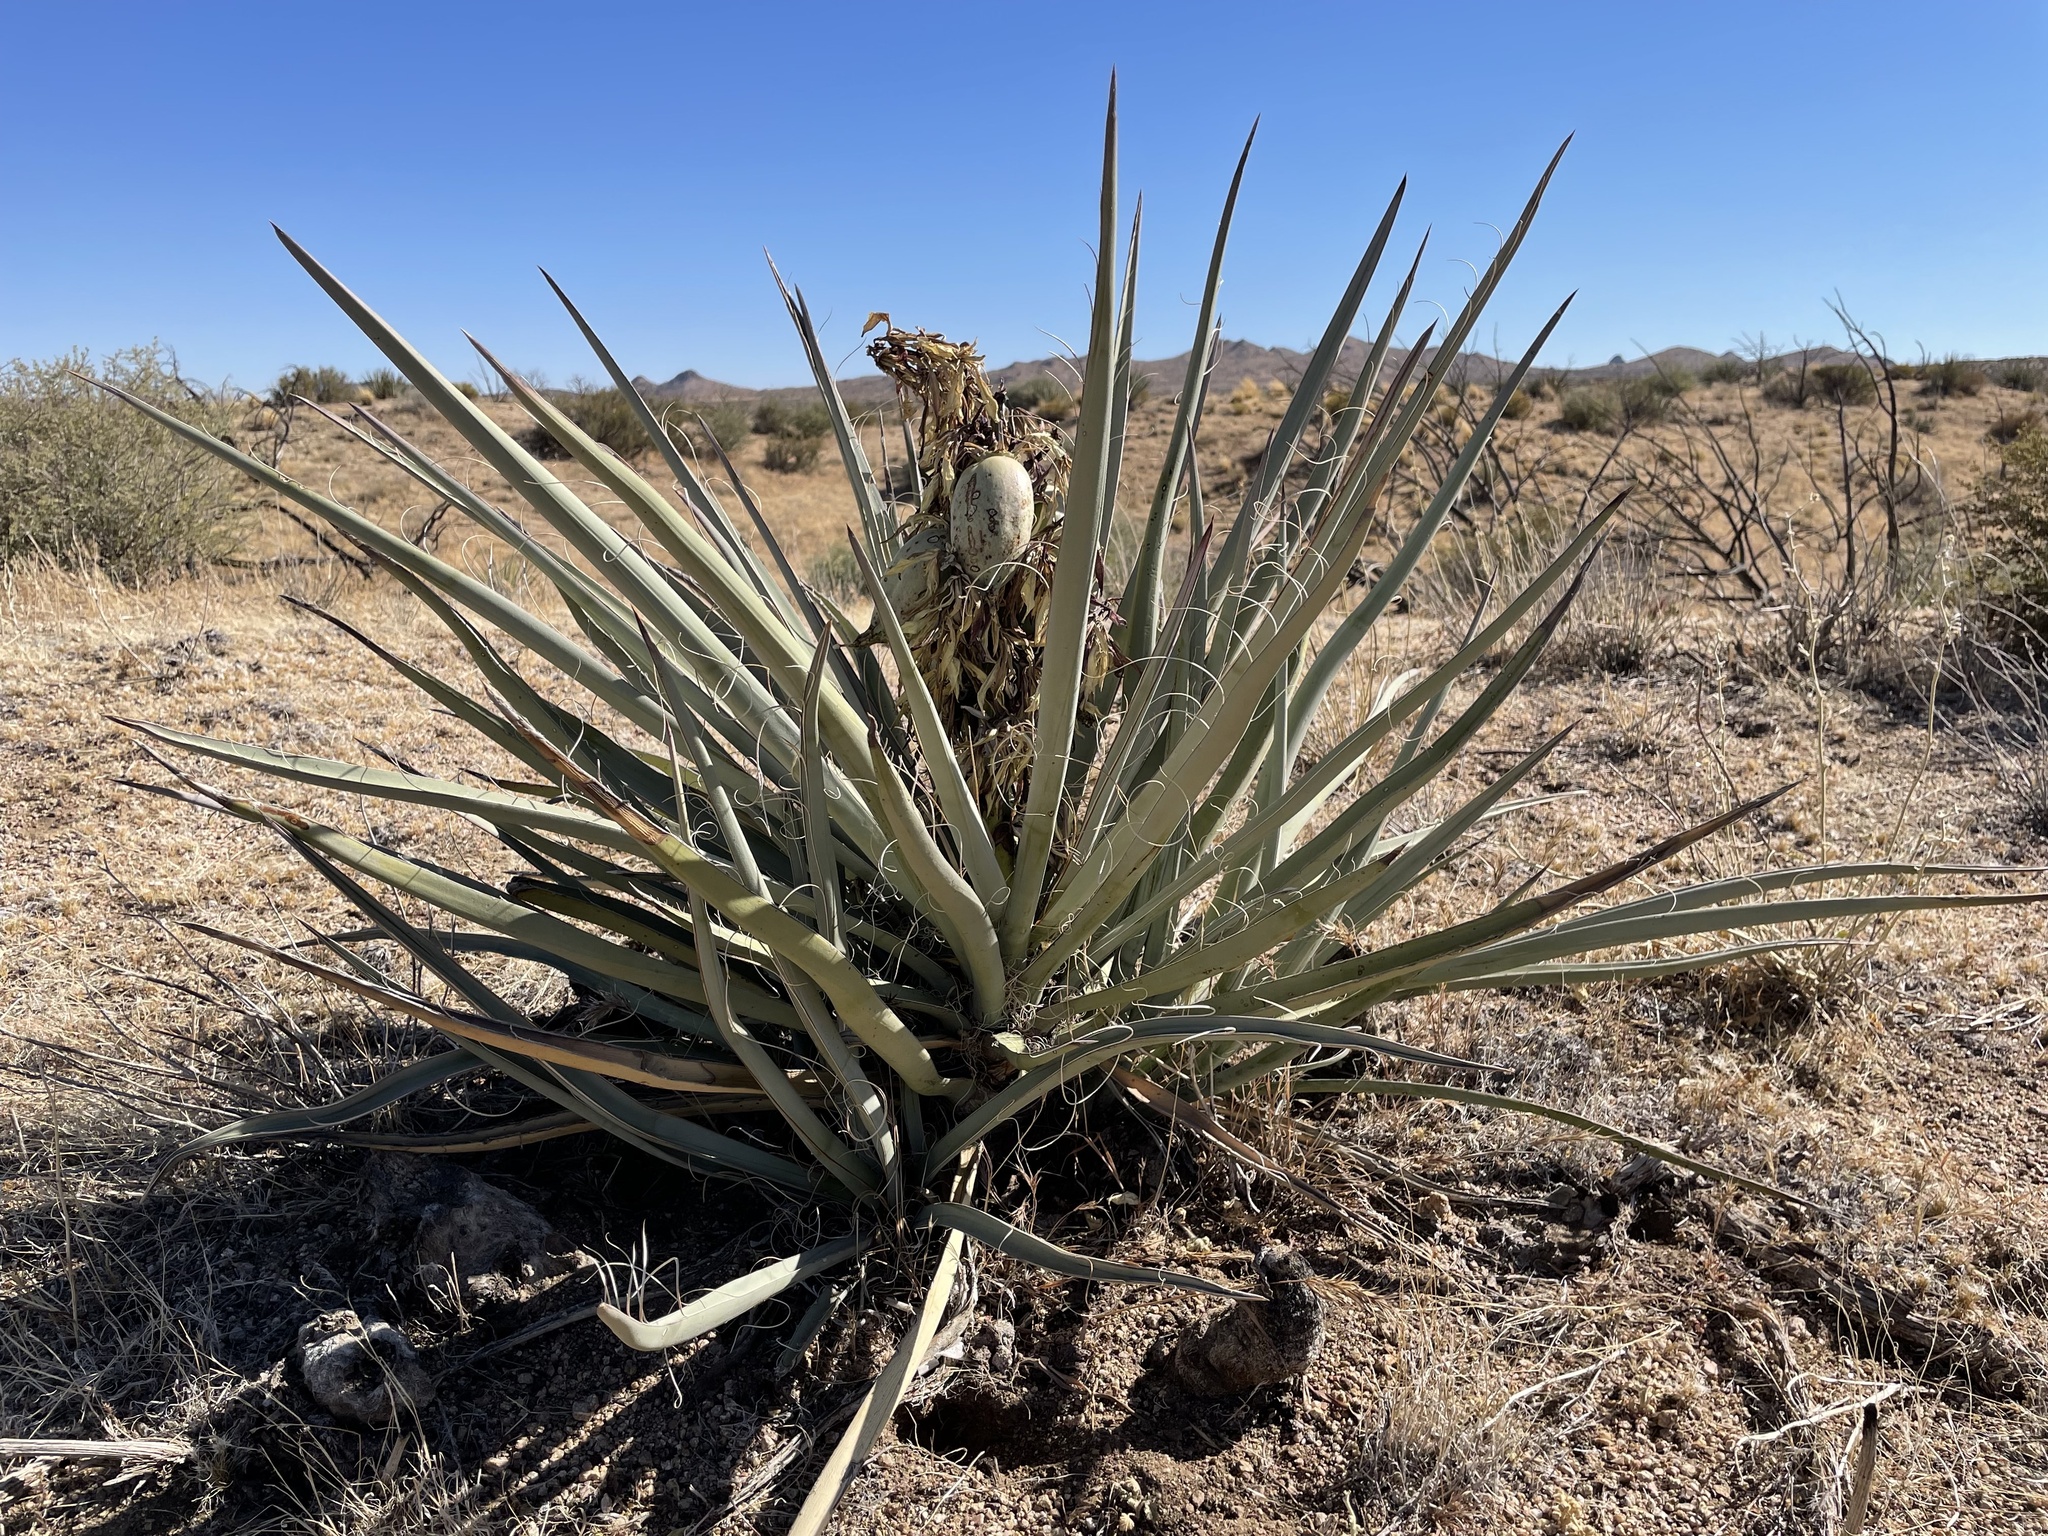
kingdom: Plantae
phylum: Tracheophyta
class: Liliopsida
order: Asparagales
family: Asparagaceae
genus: Yucca
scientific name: Yucca baccata
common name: Banana yucca
